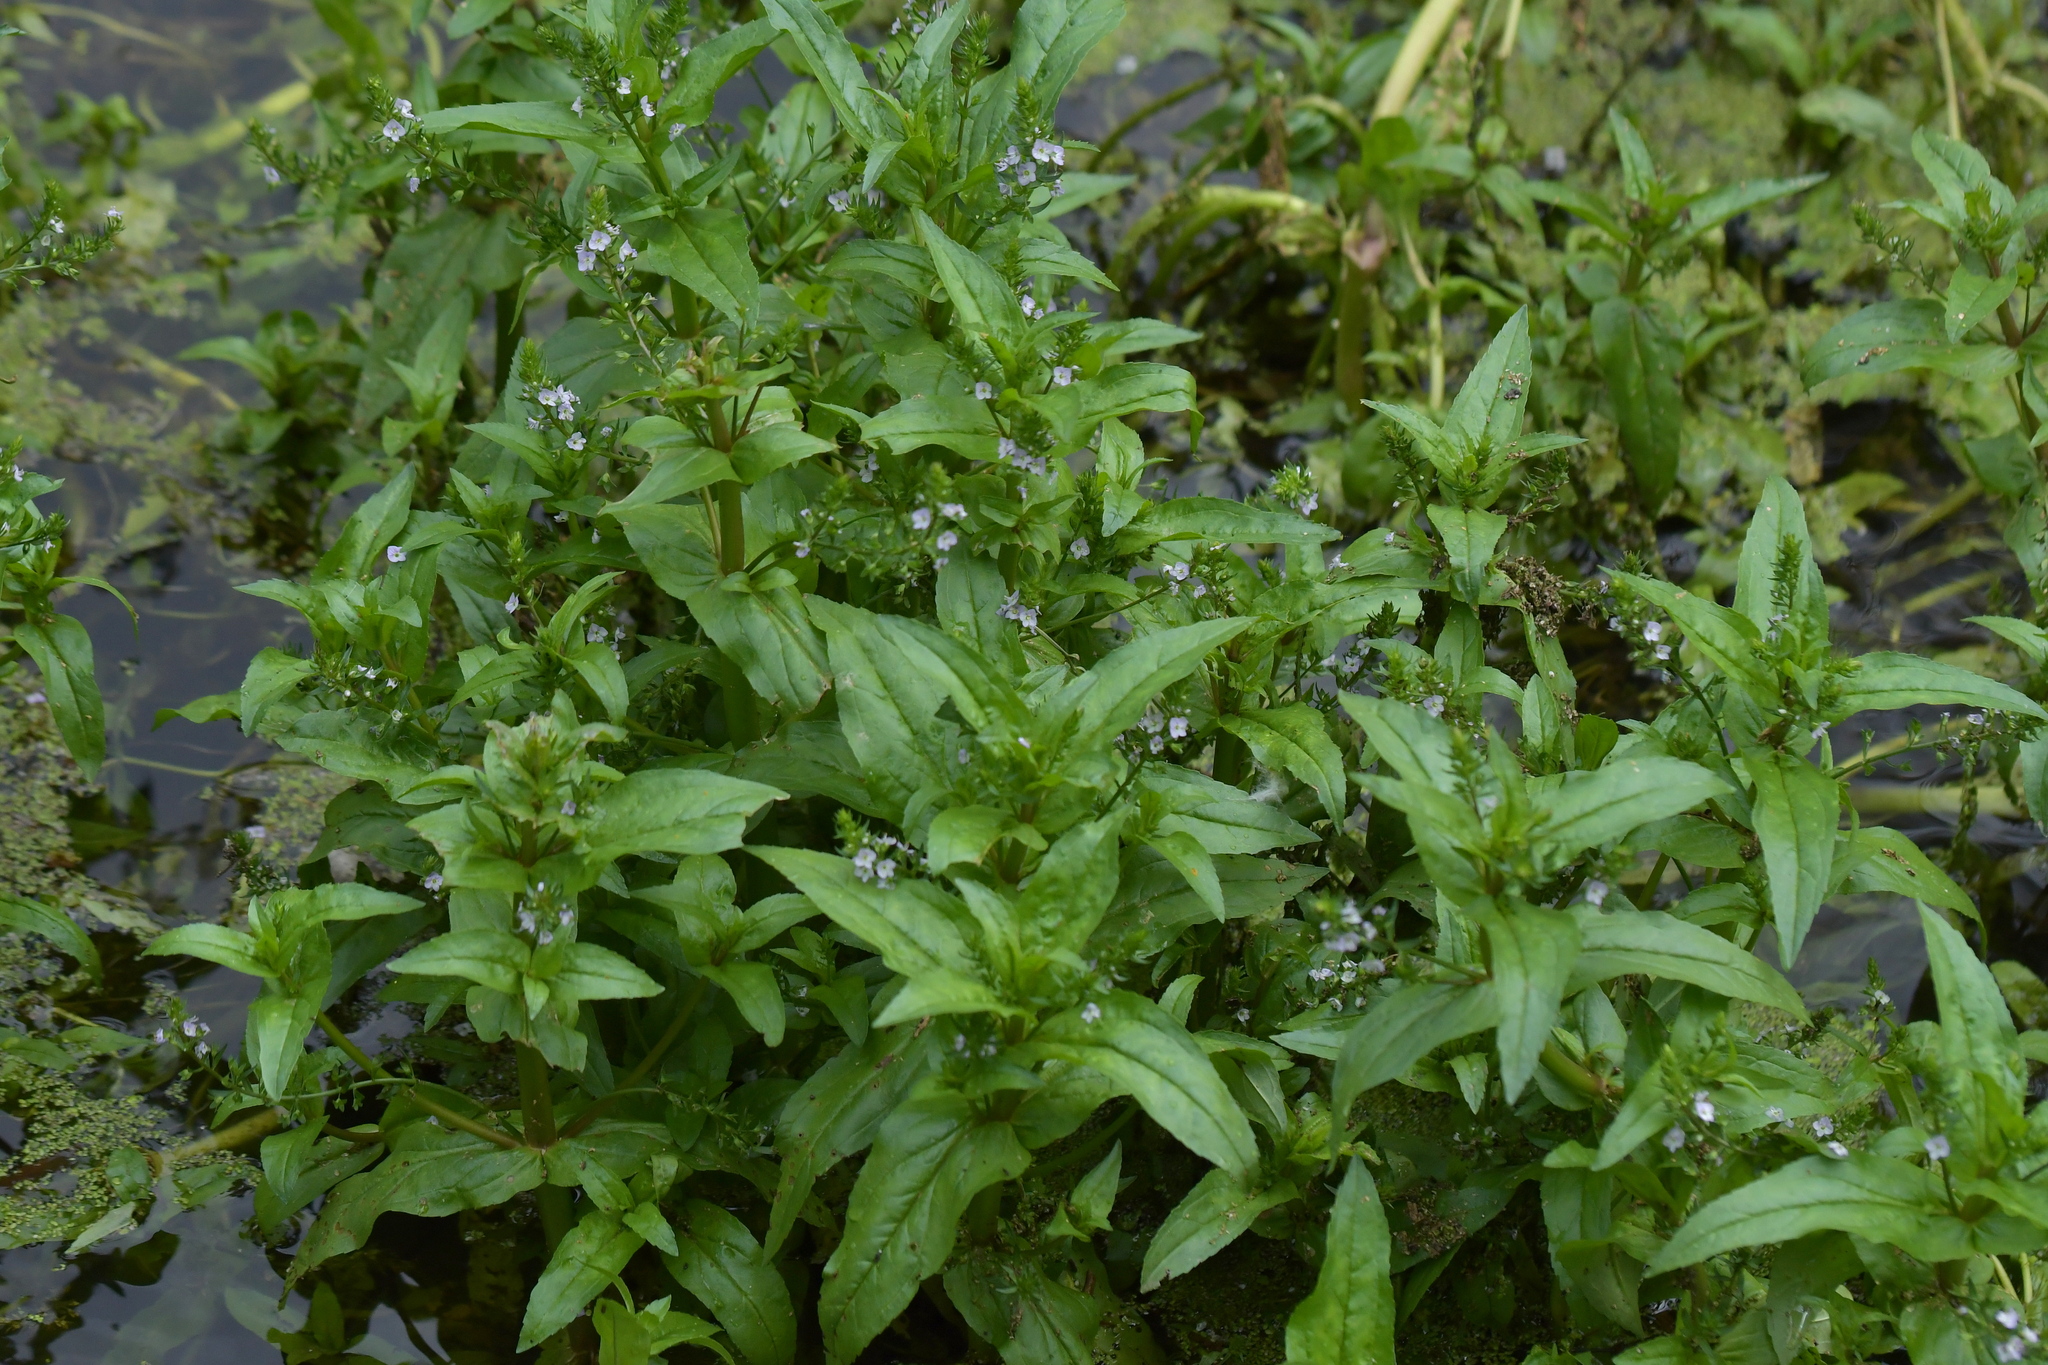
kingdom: Plantae
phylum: Tracheophyta
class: Magnoliopsida
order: Lamiales
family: Plantaginaceae
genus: Veronica
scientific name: Veronica anagallis-aquatica
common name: Water speedwell
